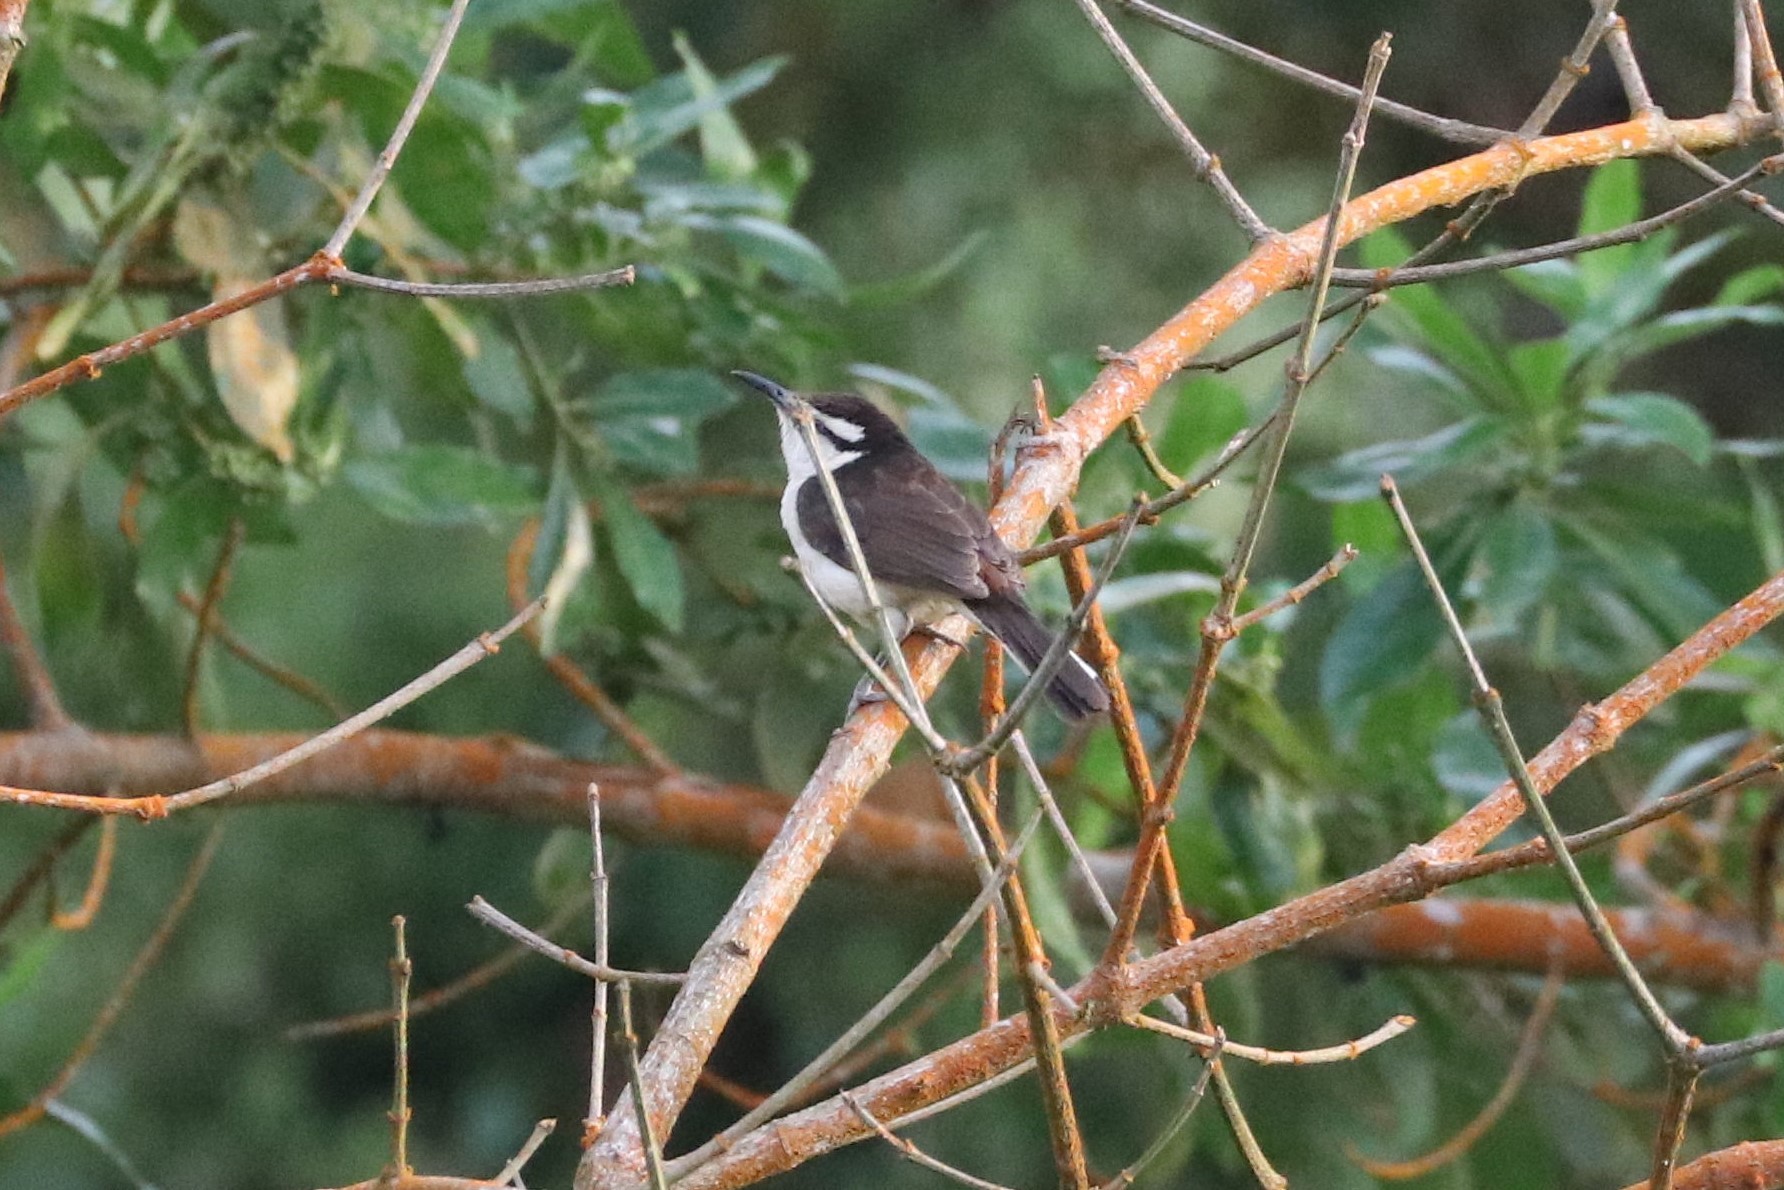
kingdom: Animalia
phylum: Chordata
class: Aves
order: Passeriformes
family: Troglodytidae
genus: Campylorhynchus
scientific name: Campylorhynchus griseus
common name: Bicolored wren
